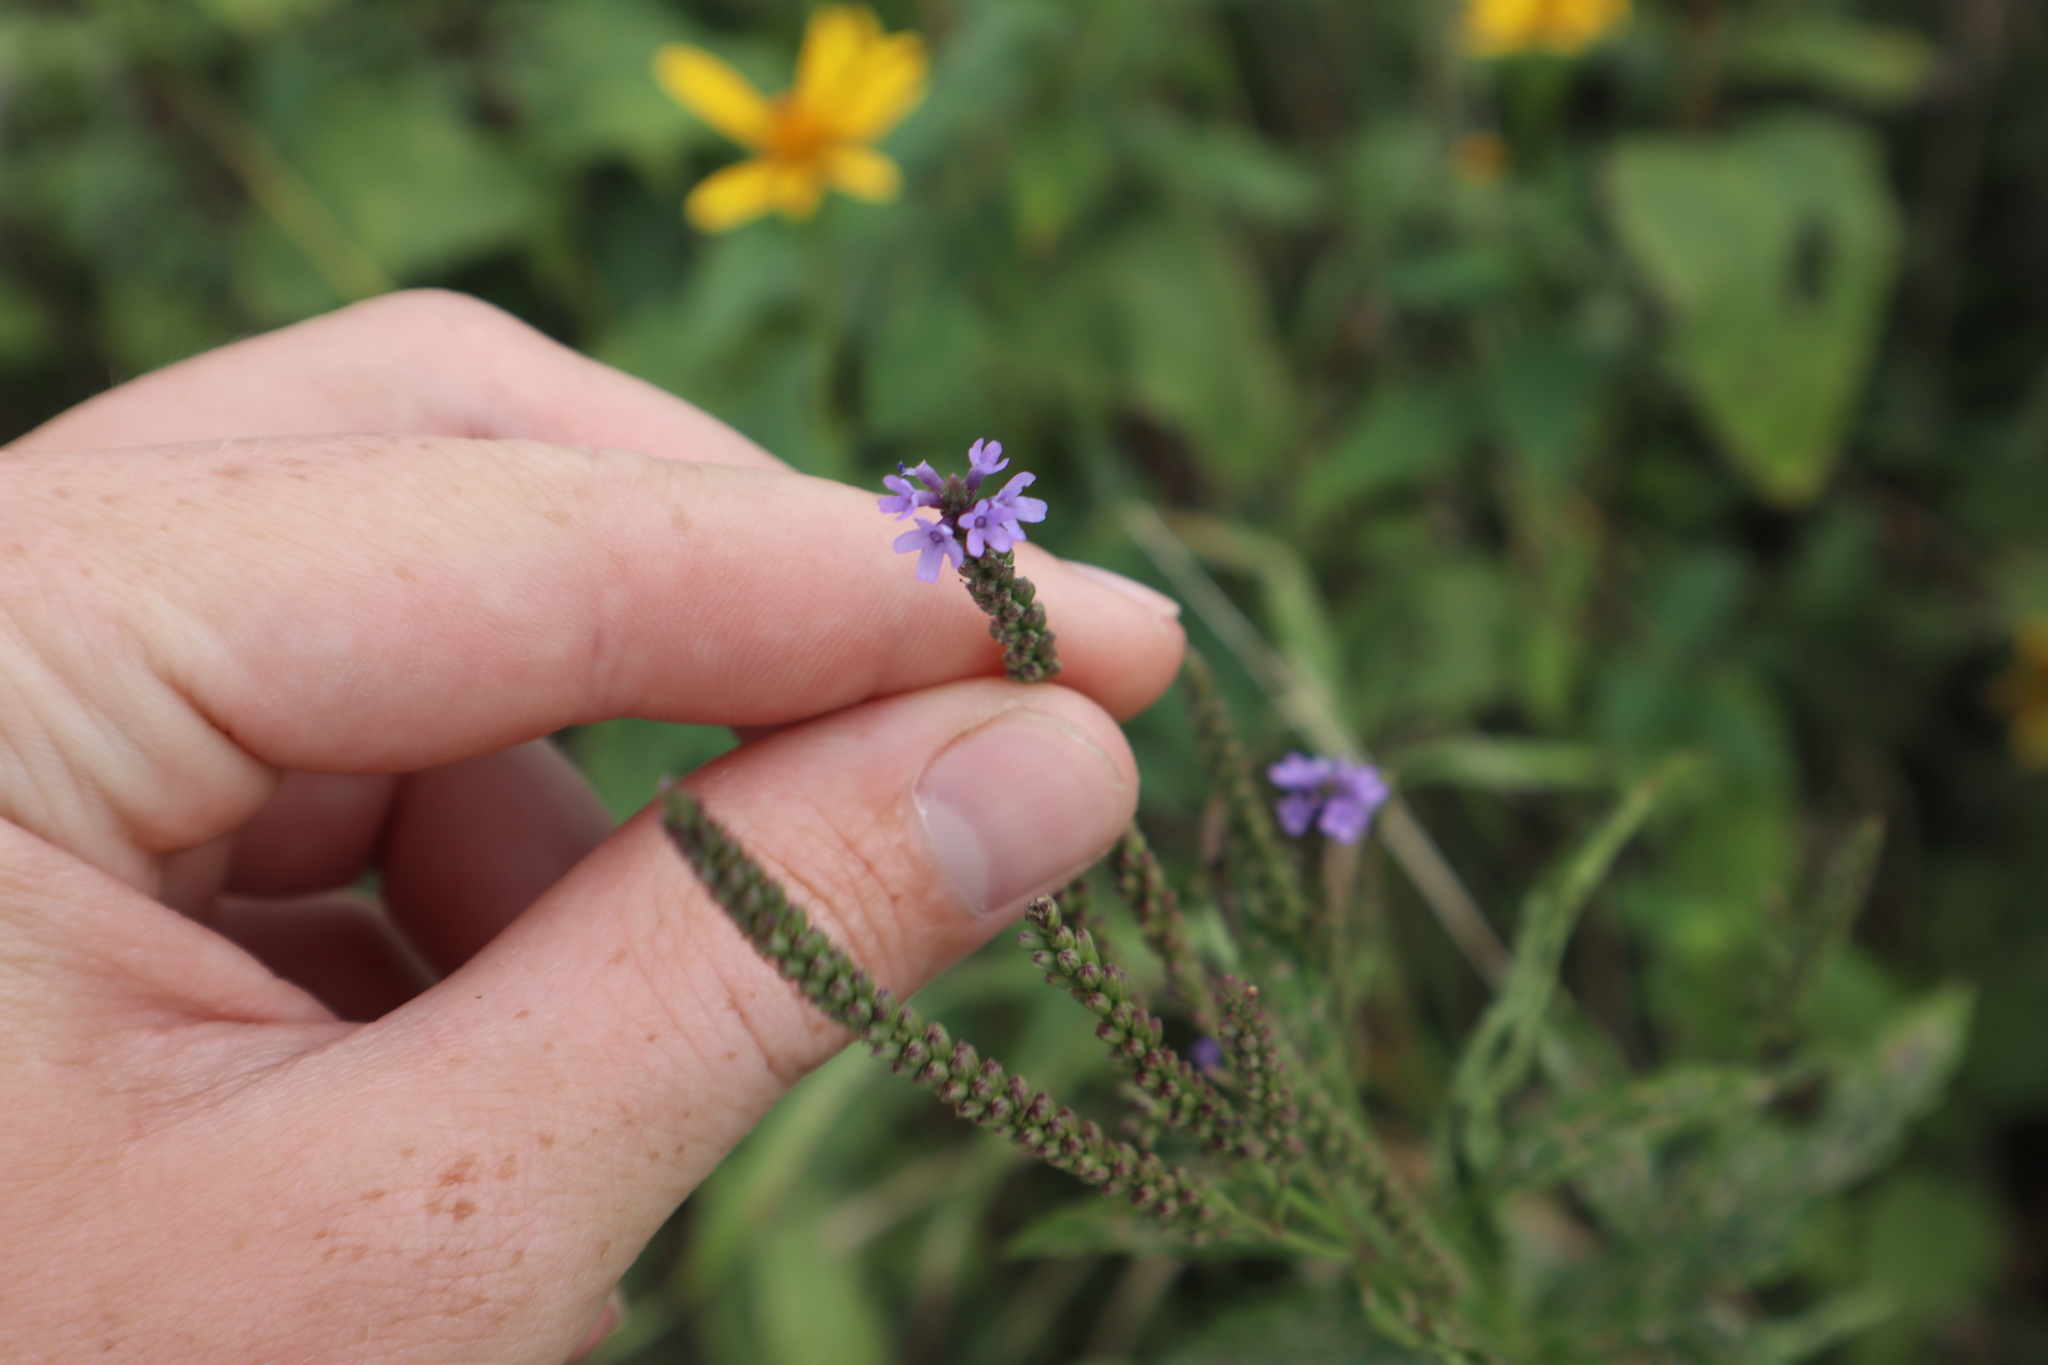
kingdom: Plantae
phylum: Tracheophyta
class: Magnoliopsida
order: Lamiales
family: Verbenaceae
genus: Verbena
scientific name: Verbena hastata
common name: American blue vervain
